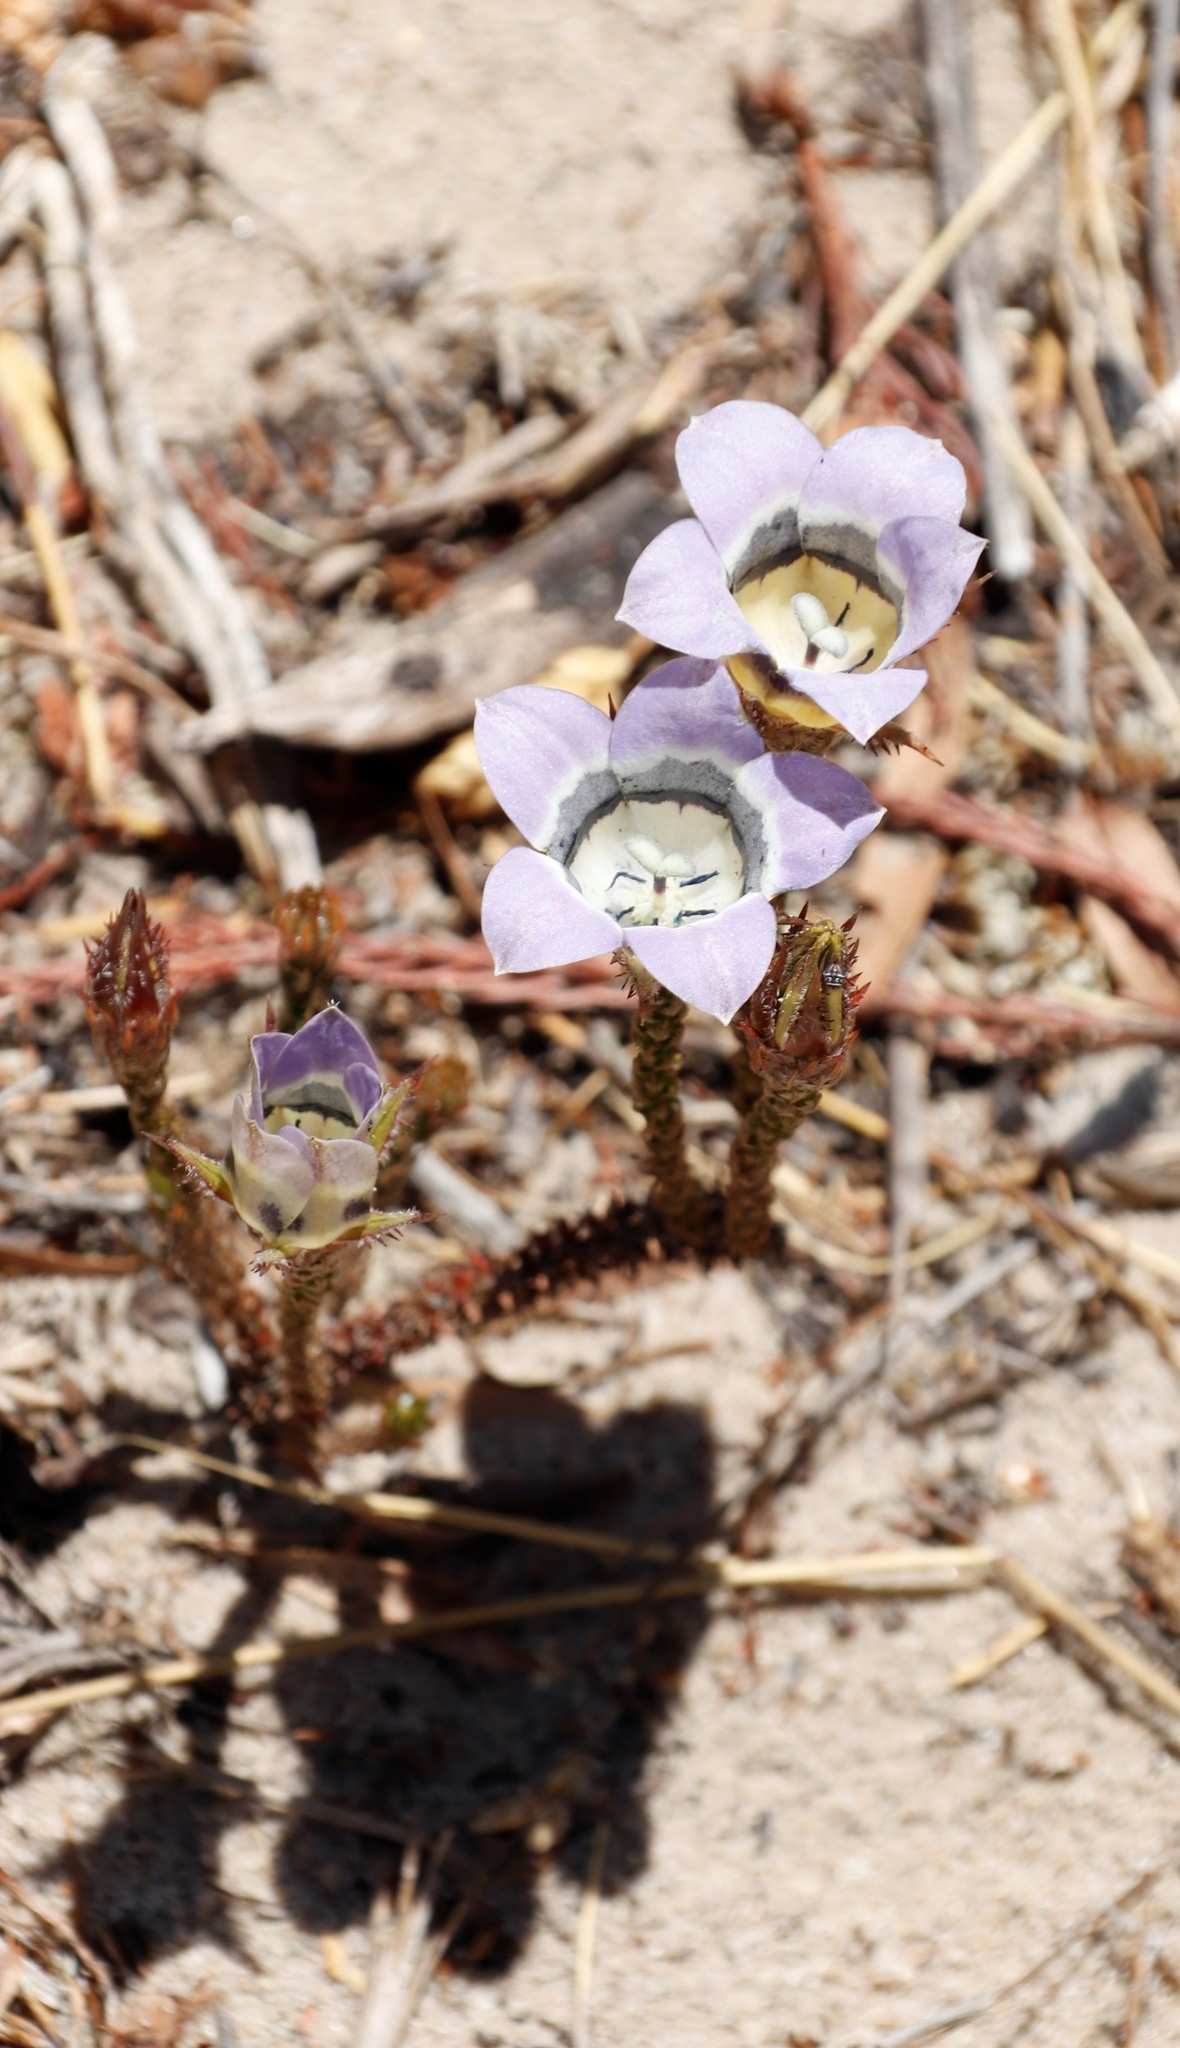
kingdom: Plantae
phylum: Tracheophyta
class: Magnoliopsida
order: Asterales
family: Campanulaceae
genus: Roella
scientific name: Roella ciliata
